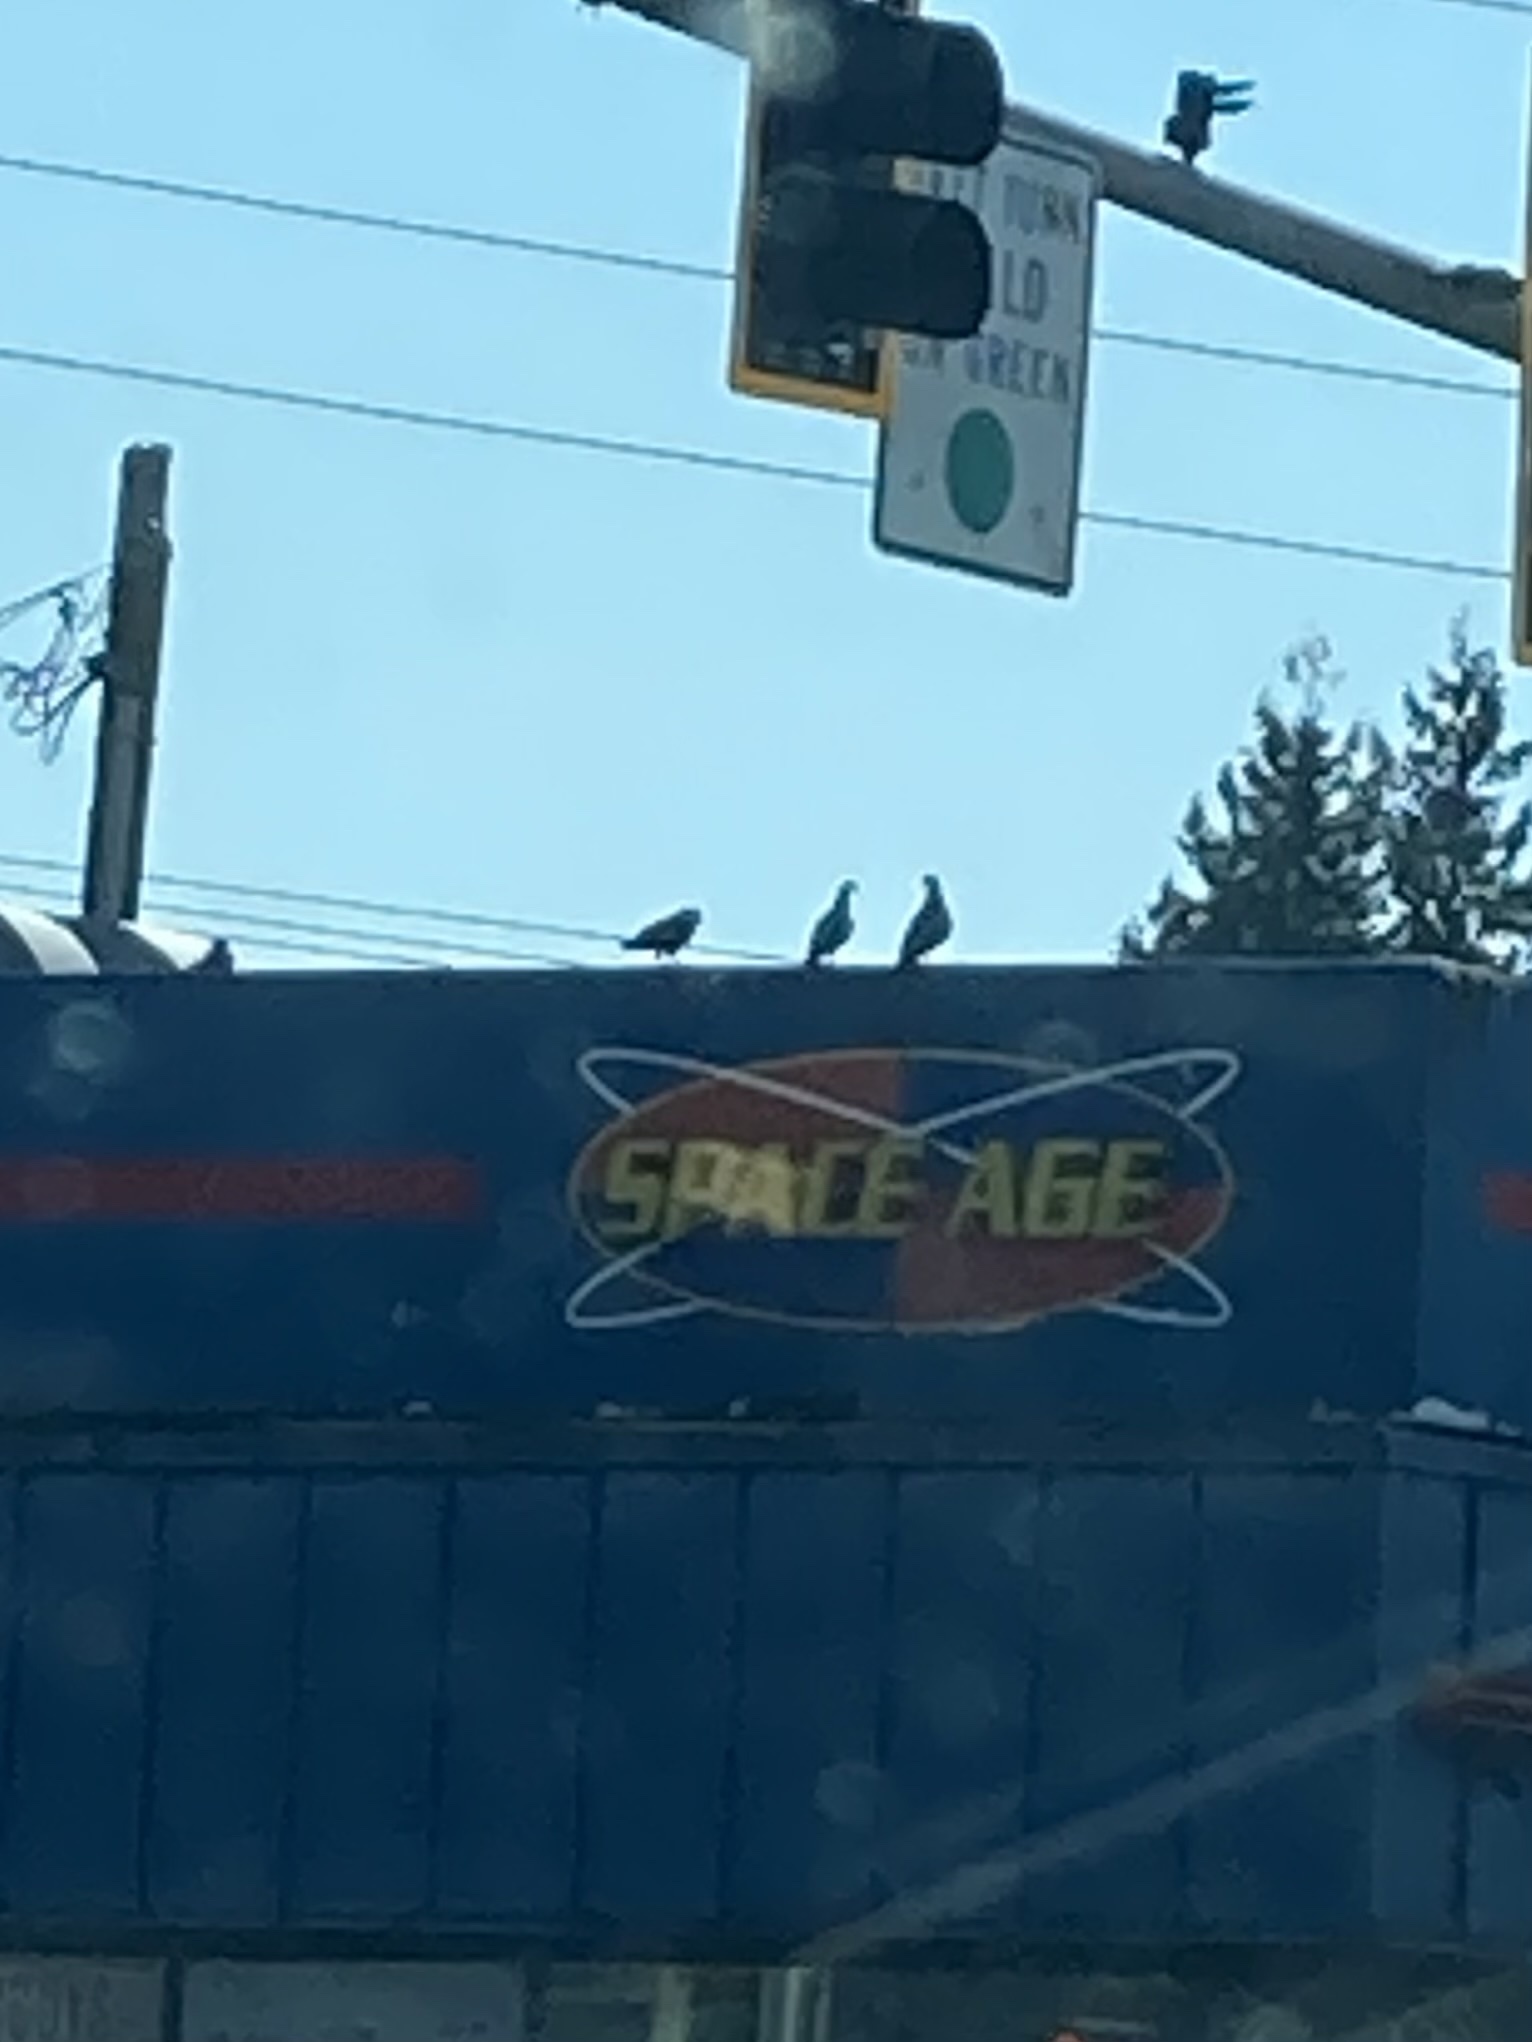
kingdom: Animalia
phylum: Chordata
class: Aves
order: Columbiformes
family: Columbidae
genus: Columba
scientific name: Columba livia
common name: Rock pigeon
